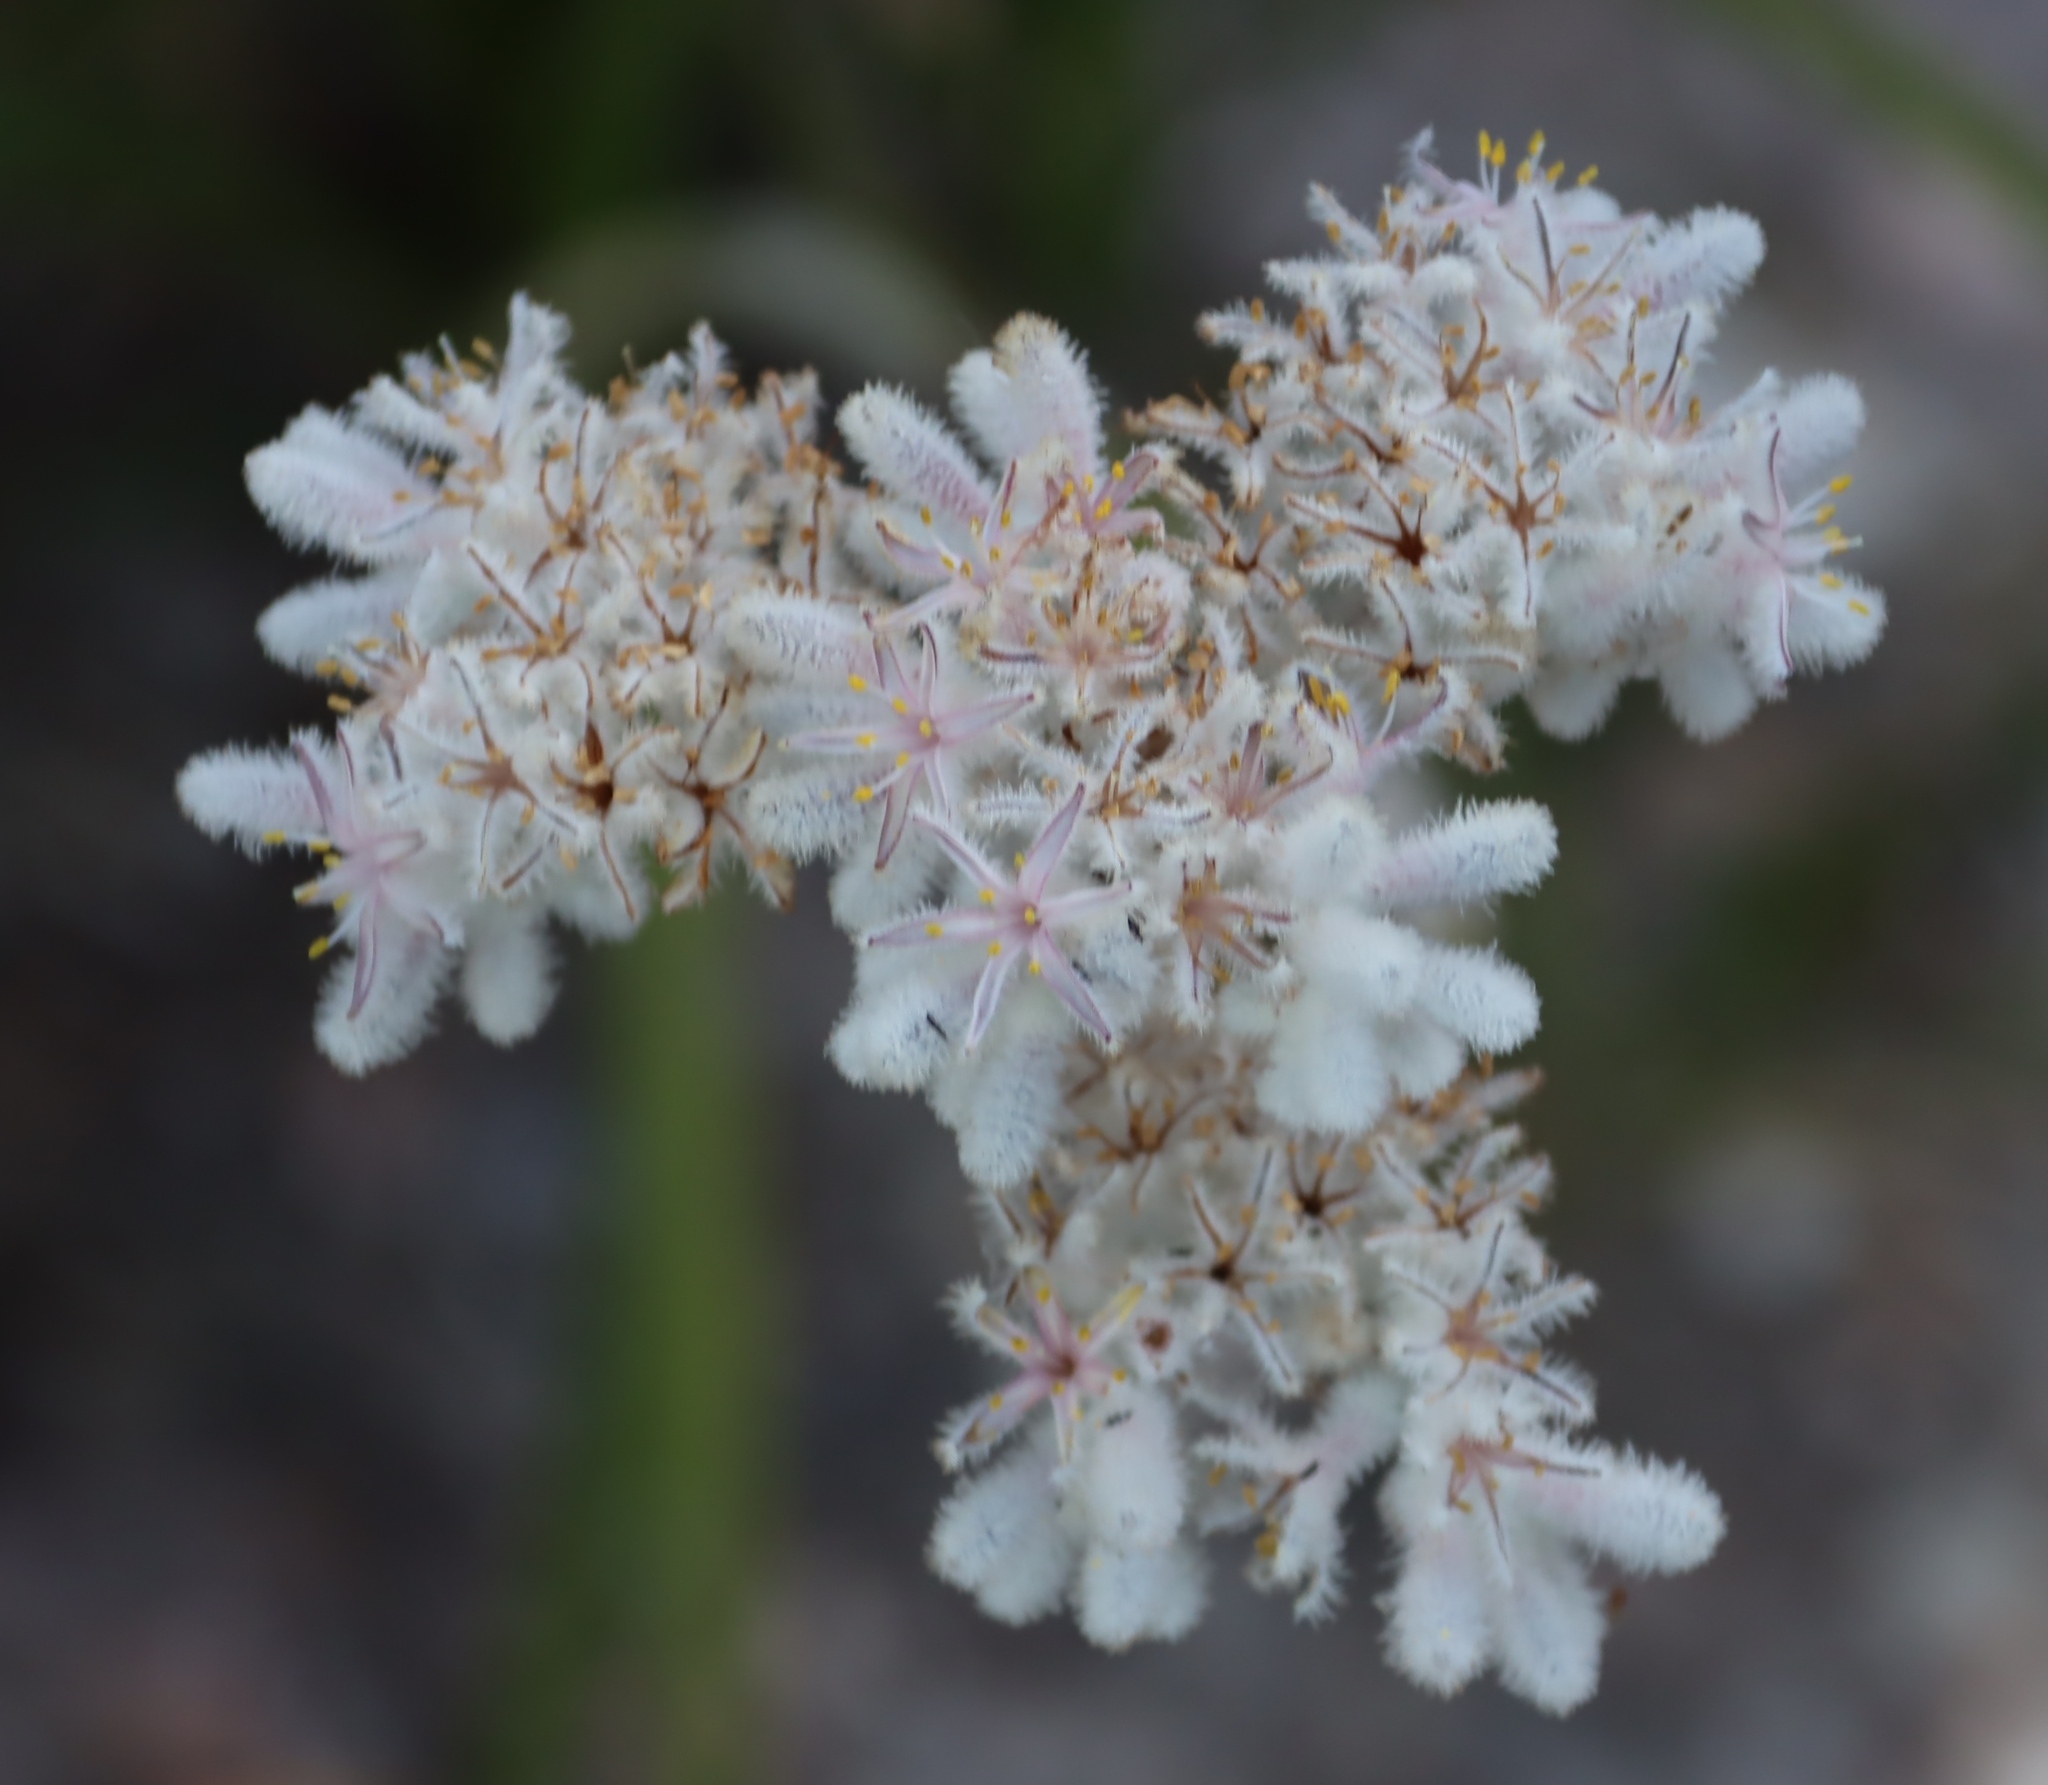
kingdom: Plantae
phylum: Tracheophyta
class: Liliopsida
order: Asparagales
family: Lanariaceae
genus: Lanaria
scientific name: Lanaria lanata
